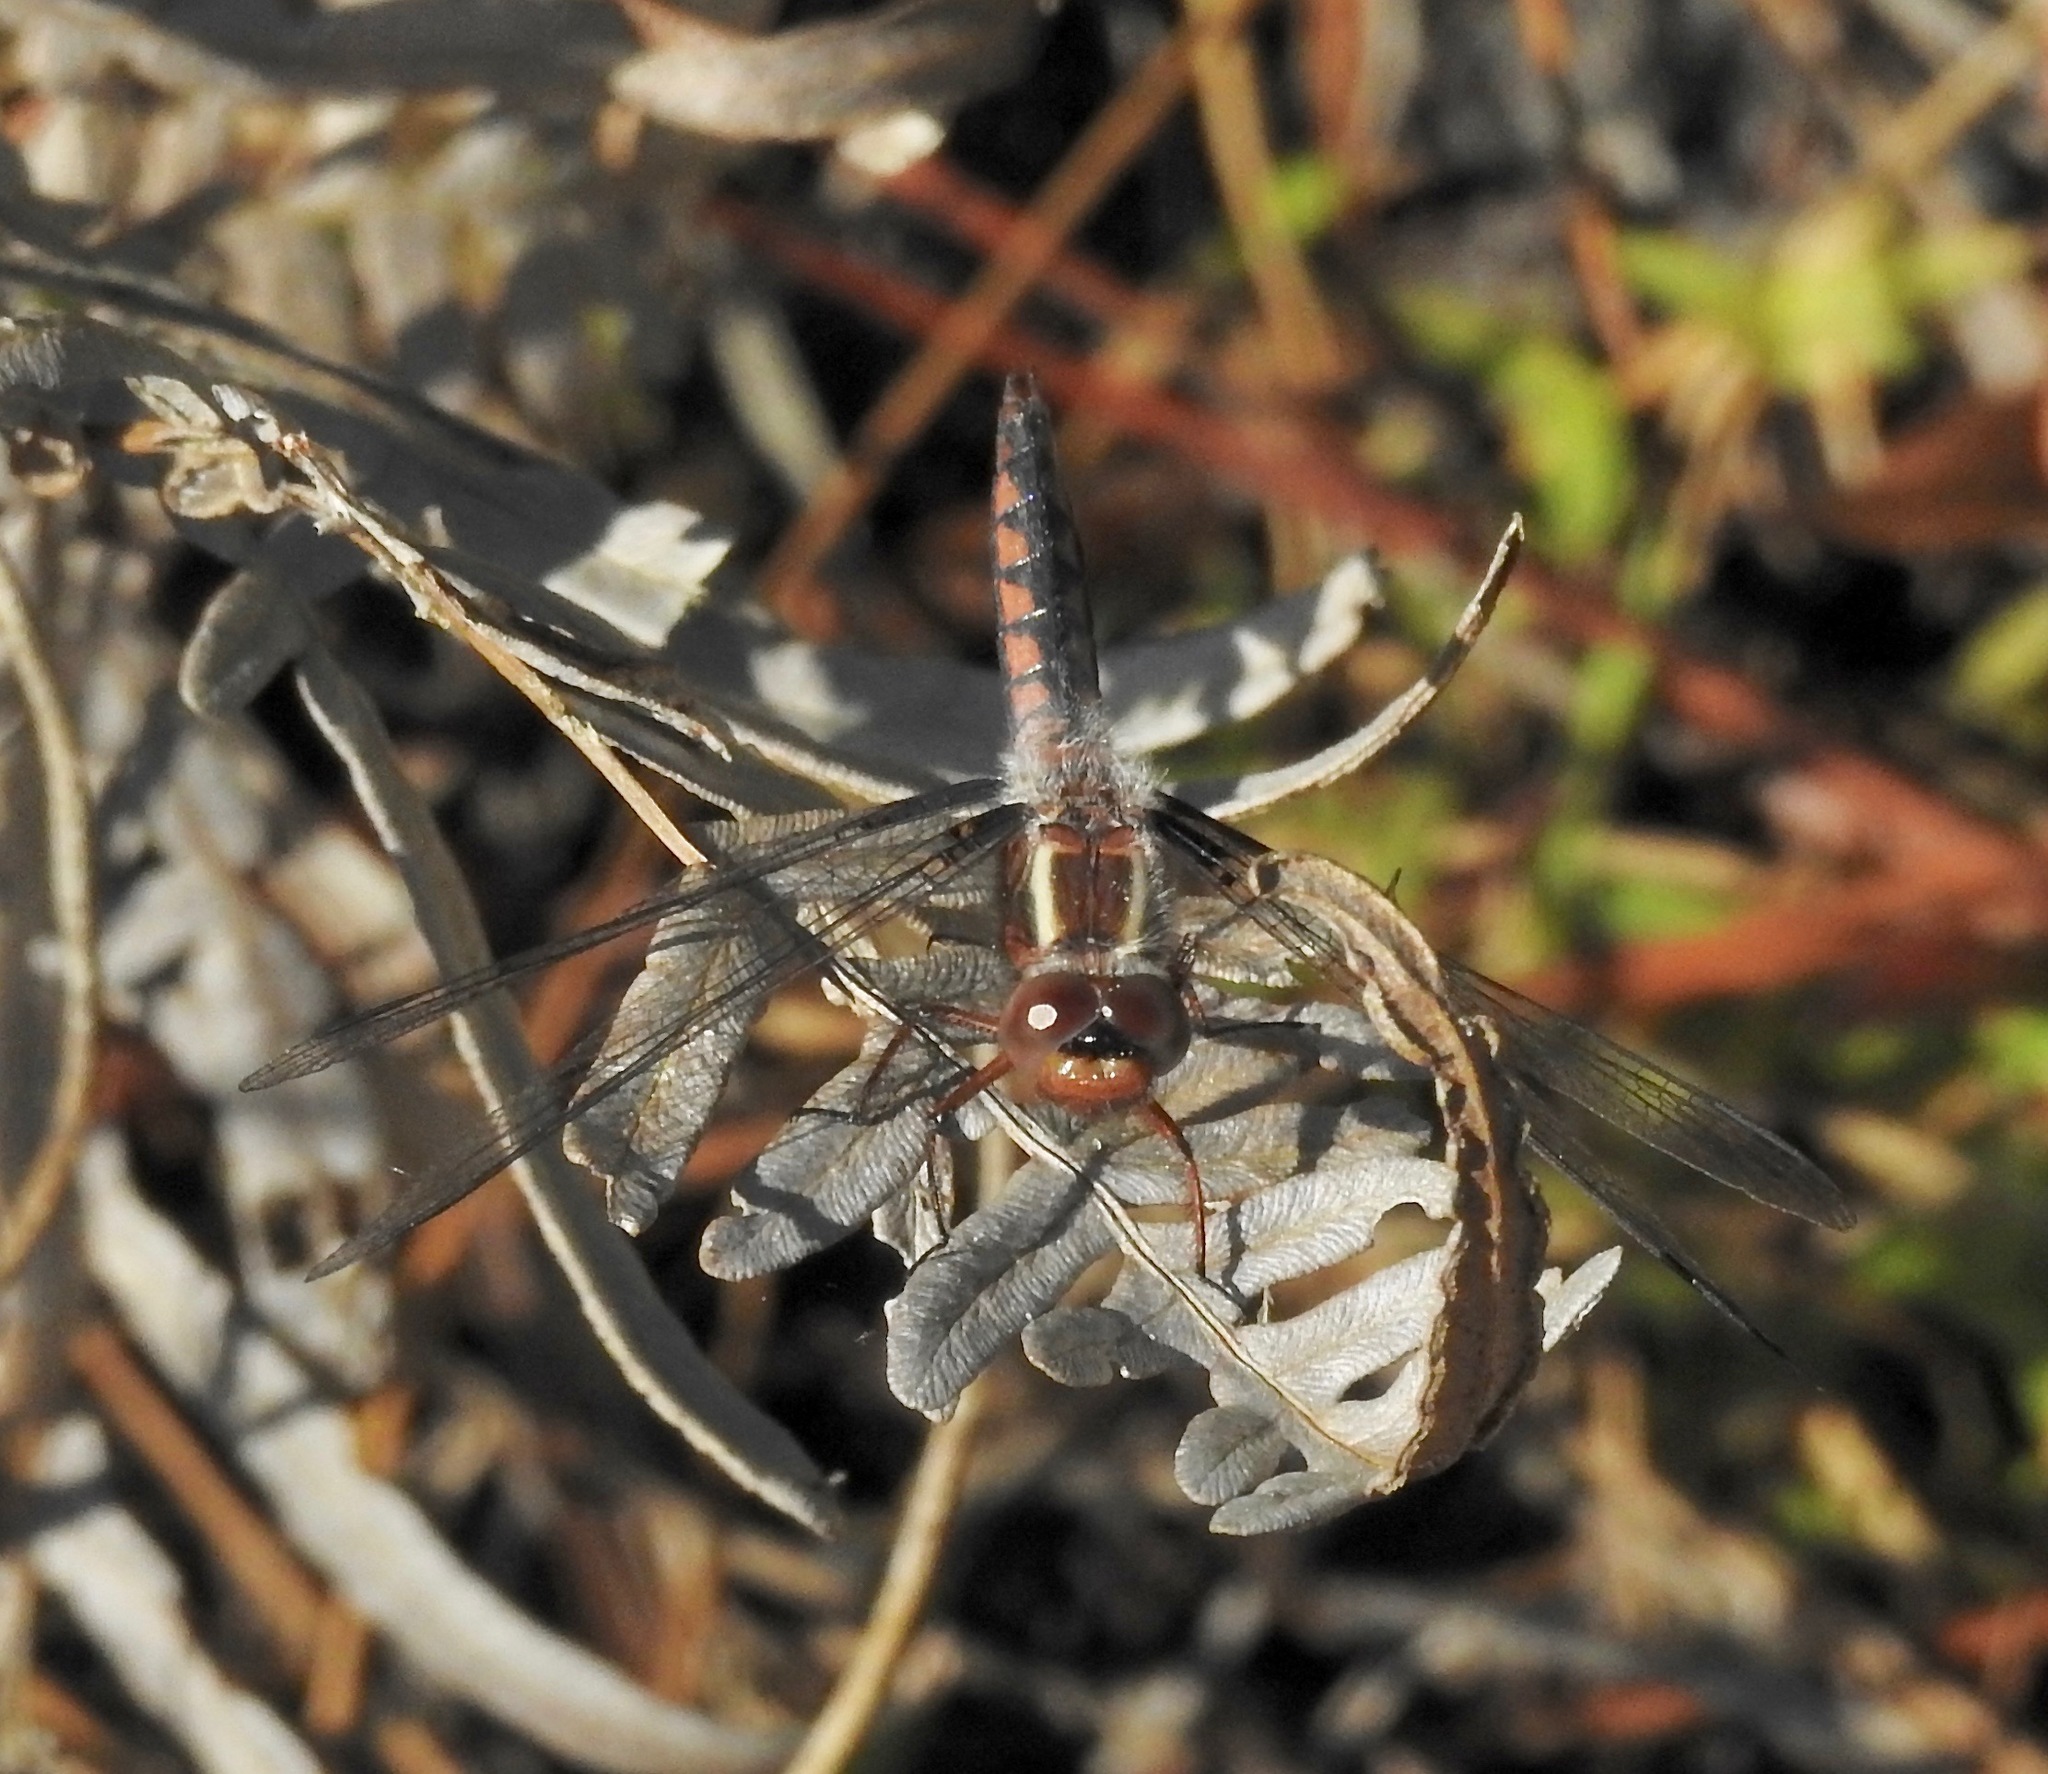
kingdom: Animalia
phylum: Arthropoda
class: Insecta
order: Odonata
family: Libellulidae
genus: Ladona
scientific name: Ladona deplanata
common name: Blue corporal
